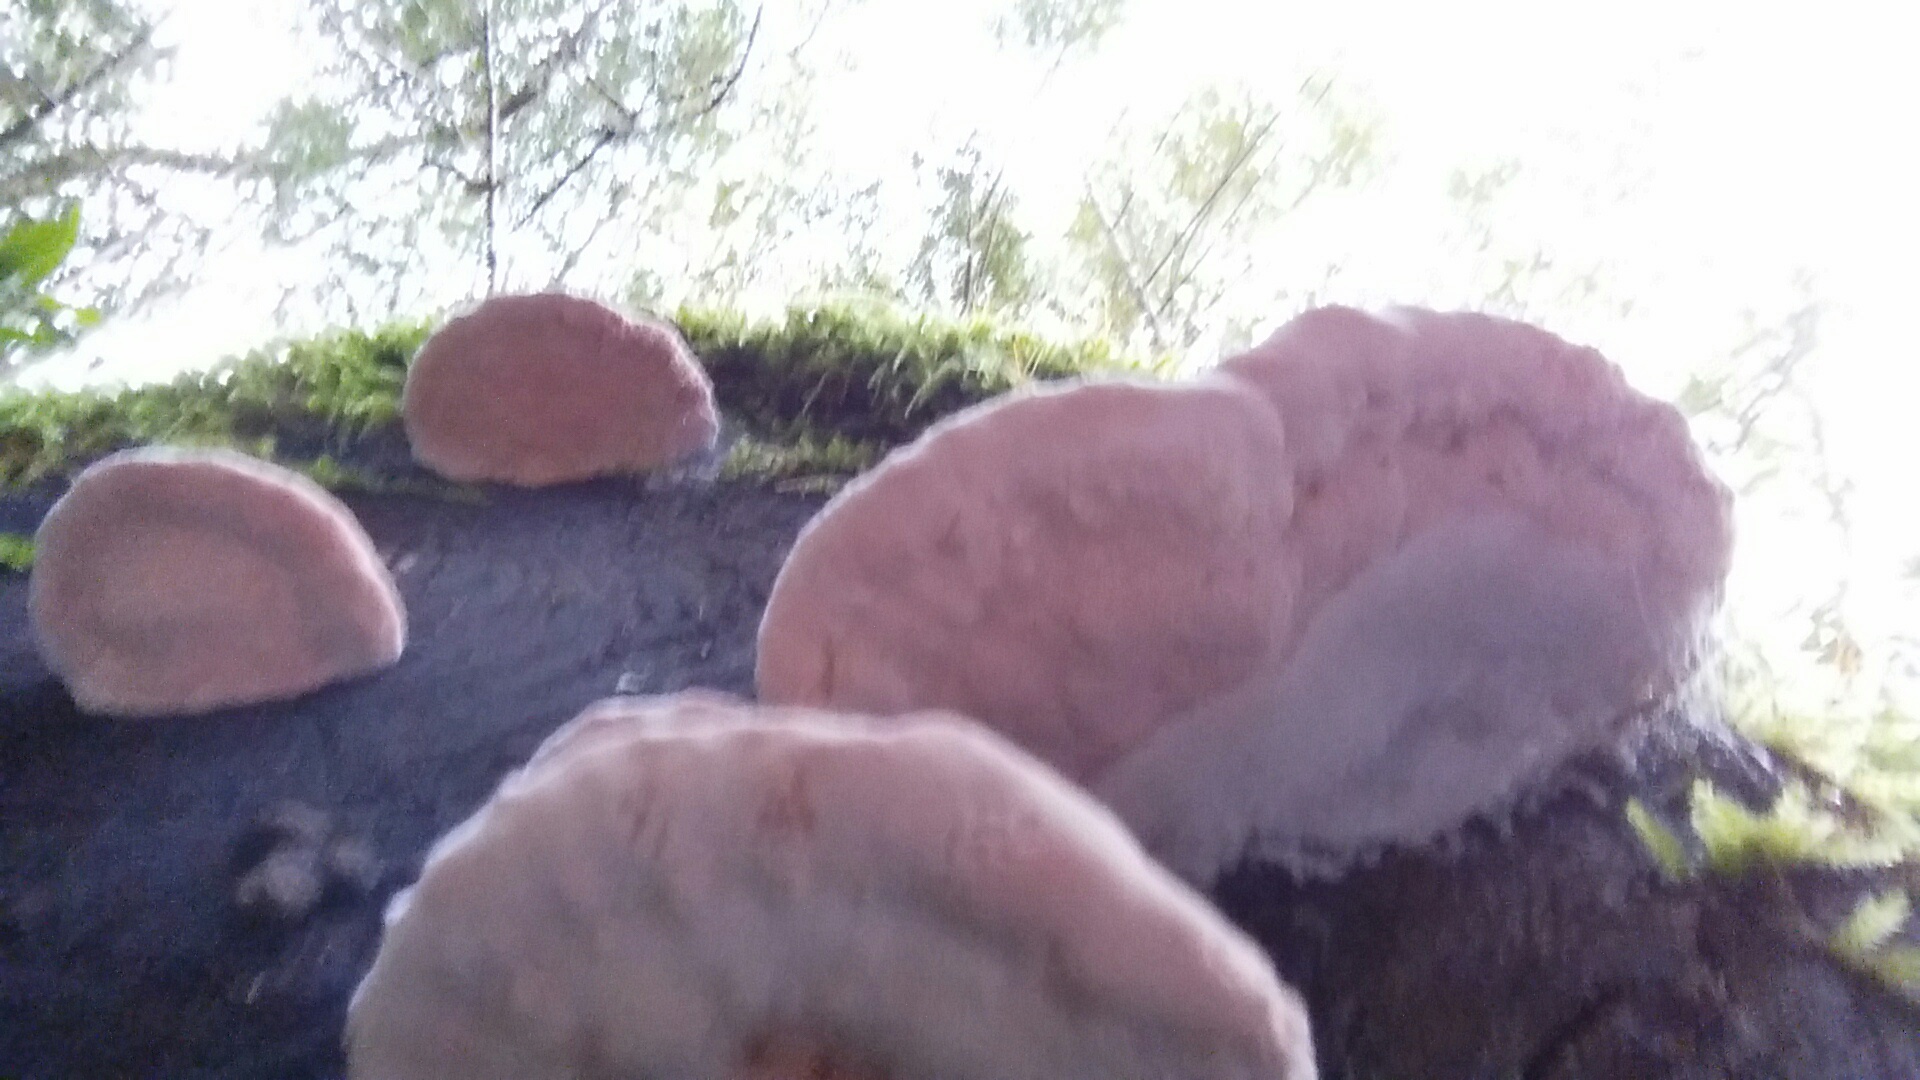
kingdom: Fungi
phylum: Basidiomycota
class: Agaricomycetes
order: Polyporales
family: Fomitopsidaceae
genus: Rhodofomes
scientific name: Rhodofomes cajanderi
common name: Rosy conk
